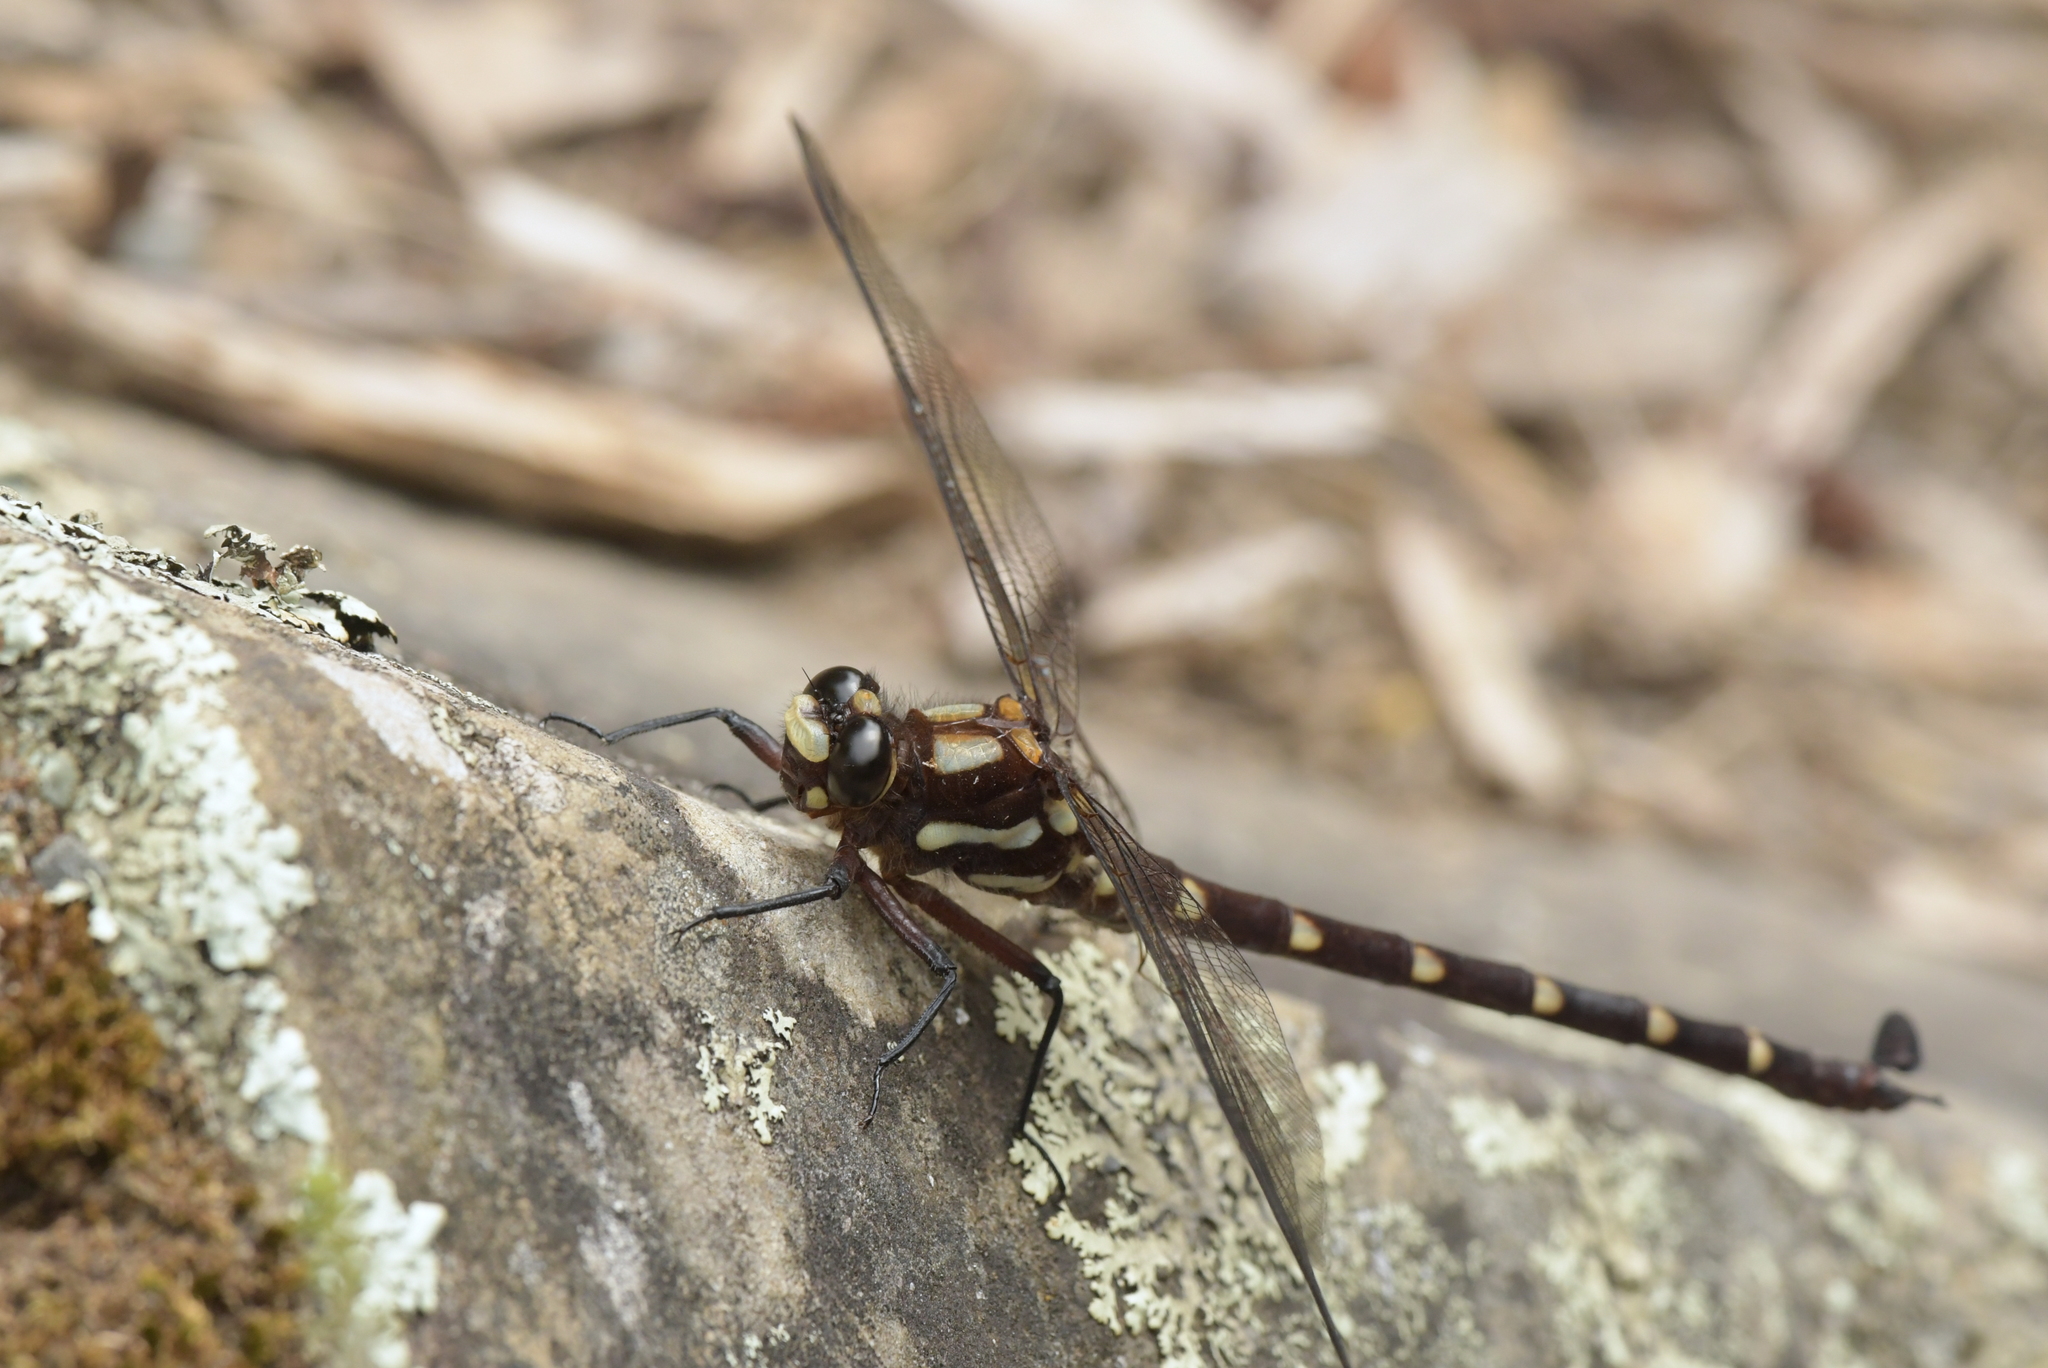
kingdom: Animalia
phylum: Arthropoda
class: Insecta
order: Odonata
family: Petaluridae
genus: Uropetala
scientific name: Uropetala carovei
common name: Bush giant dragonfly
